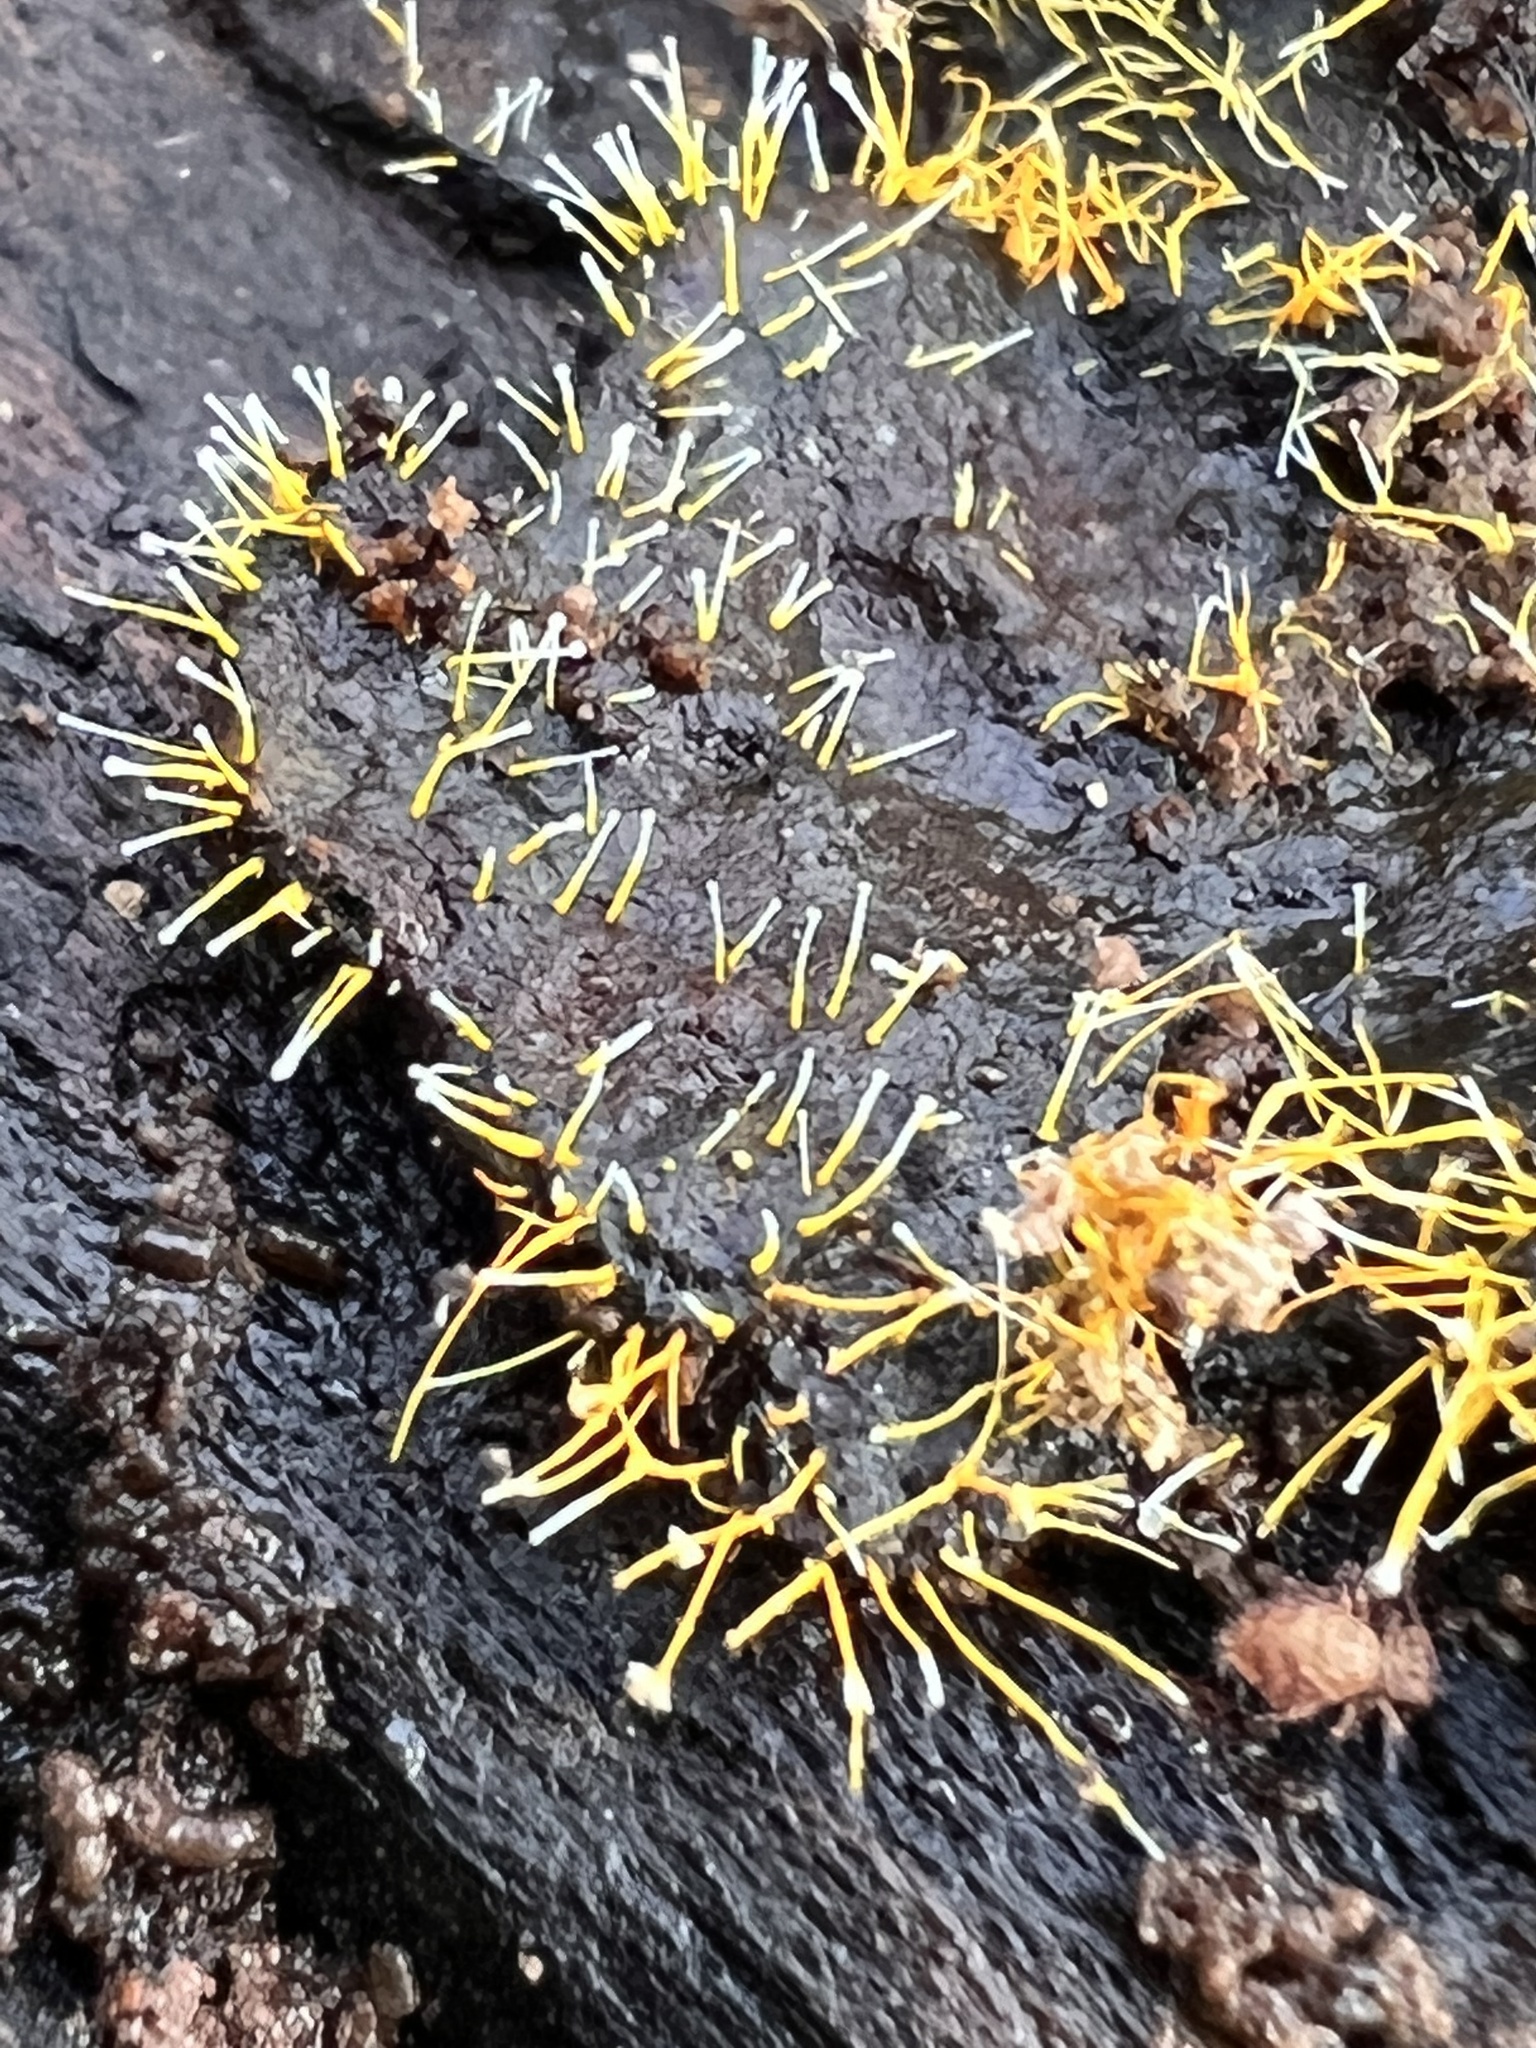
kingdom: Fungi
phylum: Ascomycota
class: Sordariomycetes
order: Hypocreales
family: Hypocreaceae
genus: Sphaerostilbella
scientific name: Sphaerostilbella aurifila
